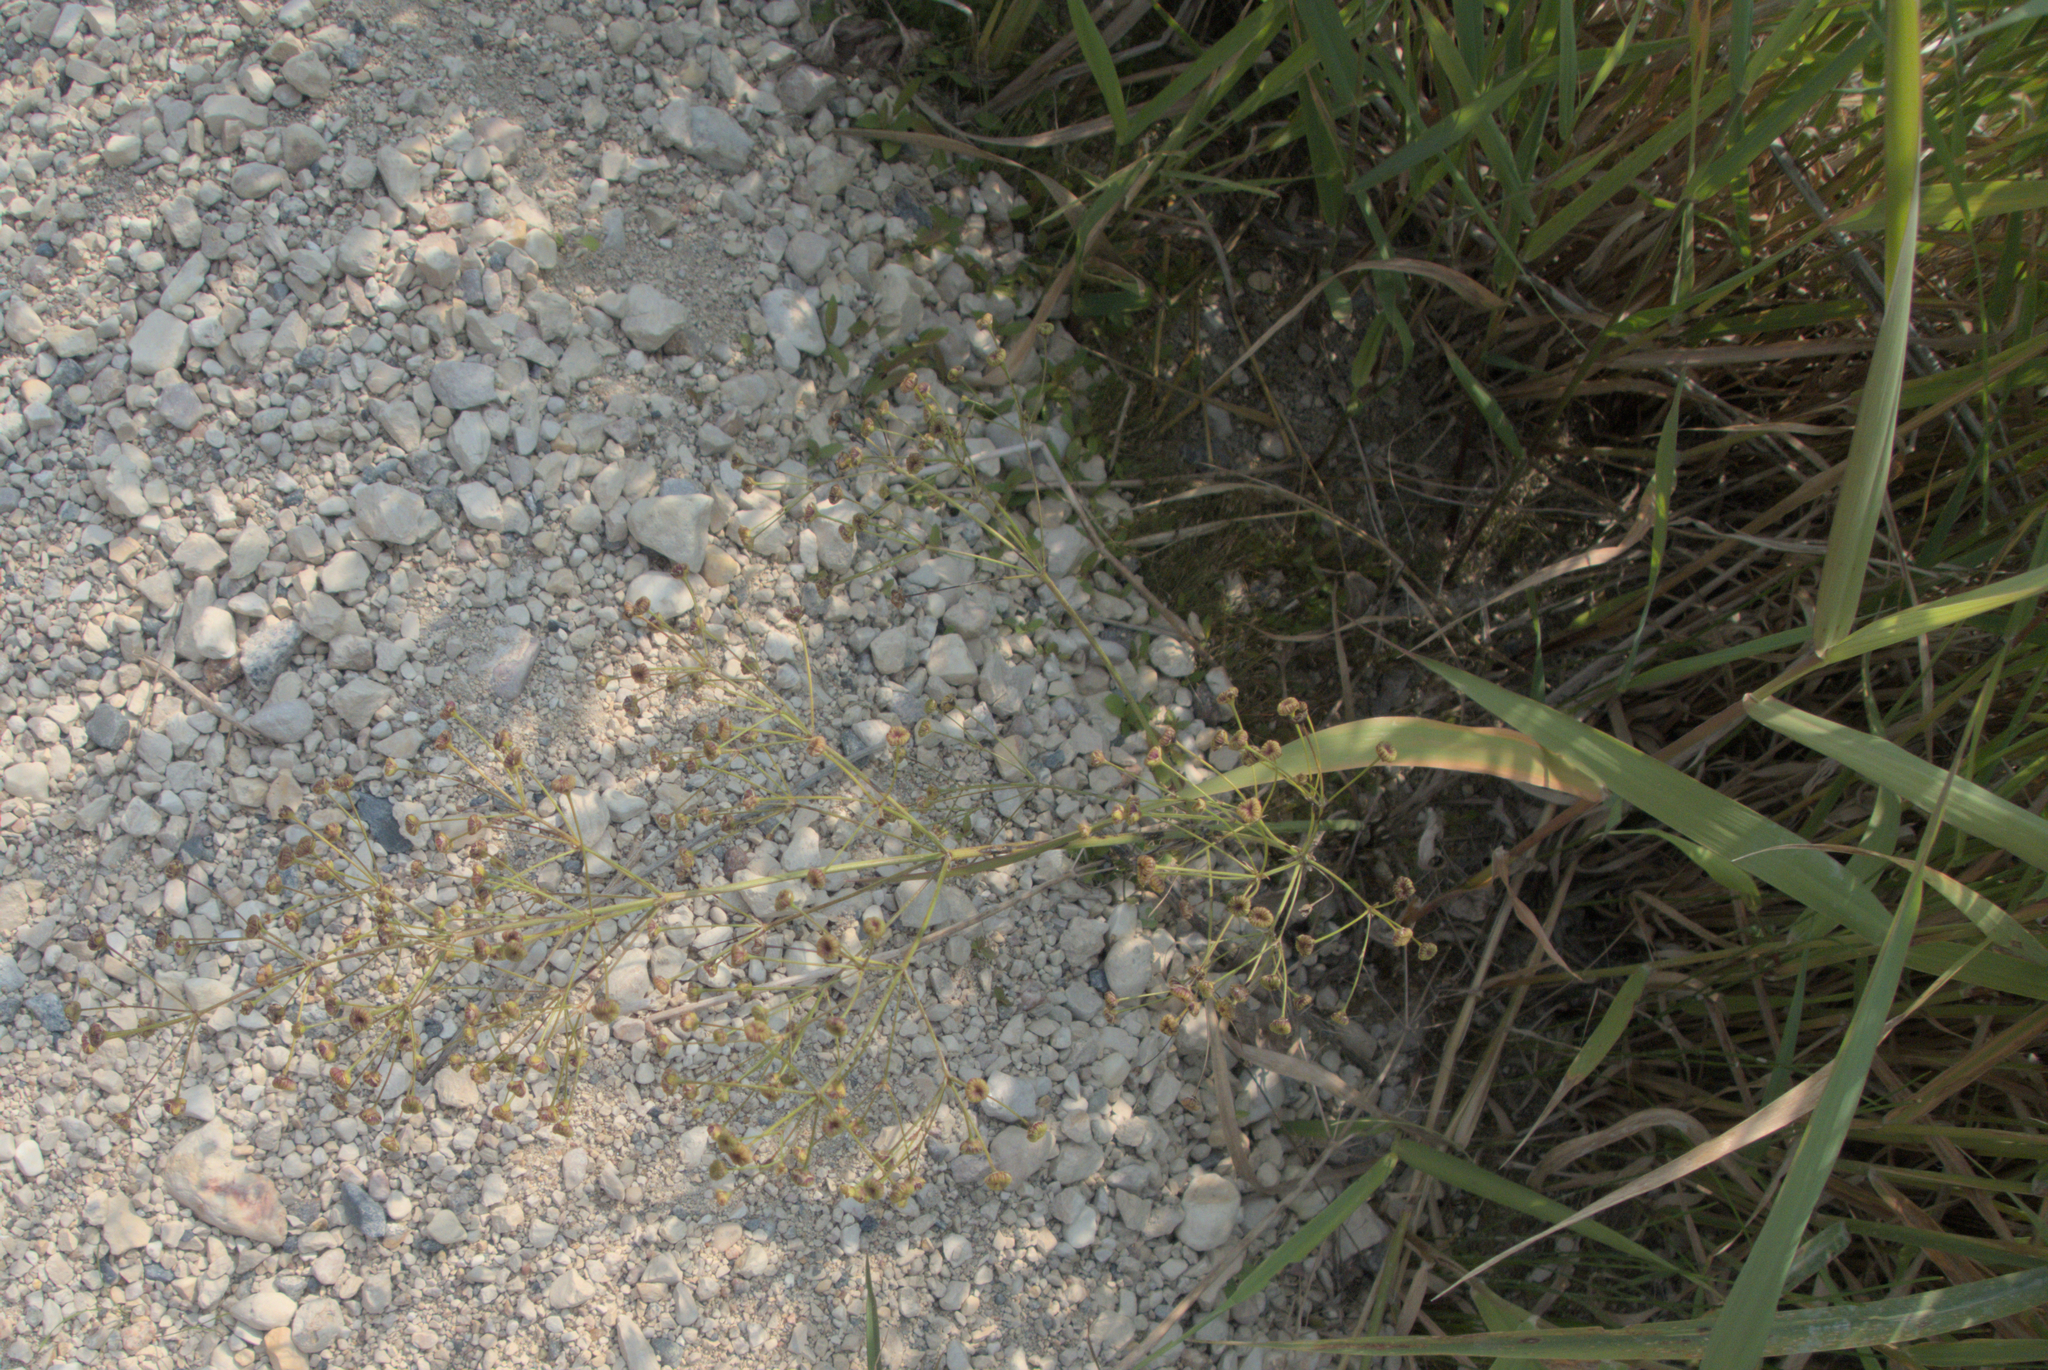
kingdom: Plantae
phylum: Tracheophyta
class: Liliopsida
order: Alismatales
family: Alismataceae
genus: Alisma
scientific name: Alisma triviale
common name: Northern water-plantain
